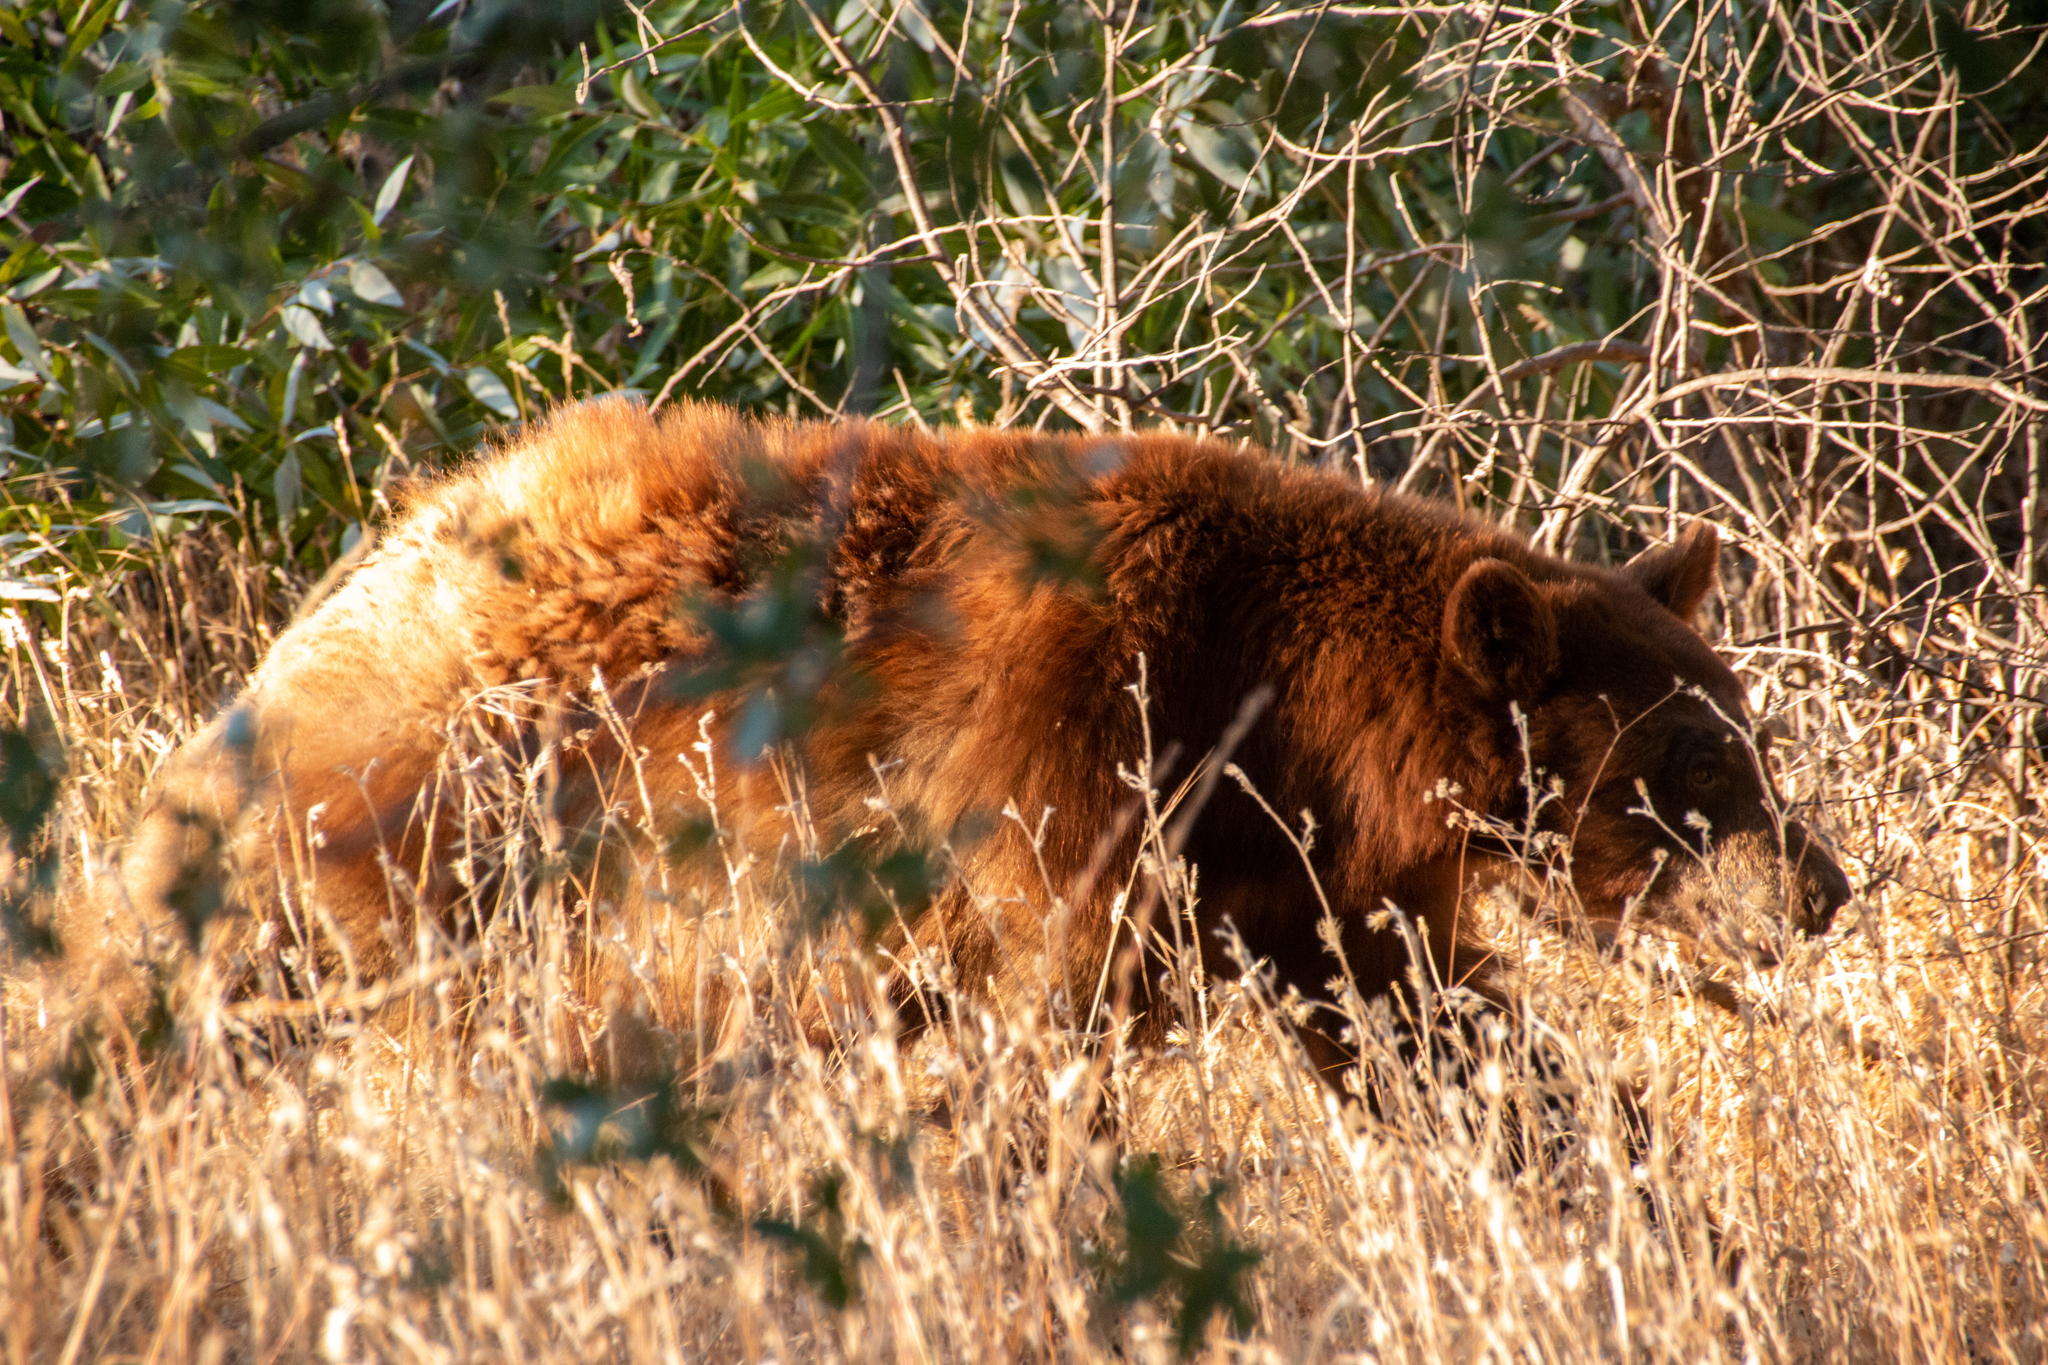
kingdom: Animalia
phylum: Chordata
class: Mammalia
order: Carnivora
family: Ursidae
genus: Ursus
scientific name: Ursus americanus
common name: American black bear
